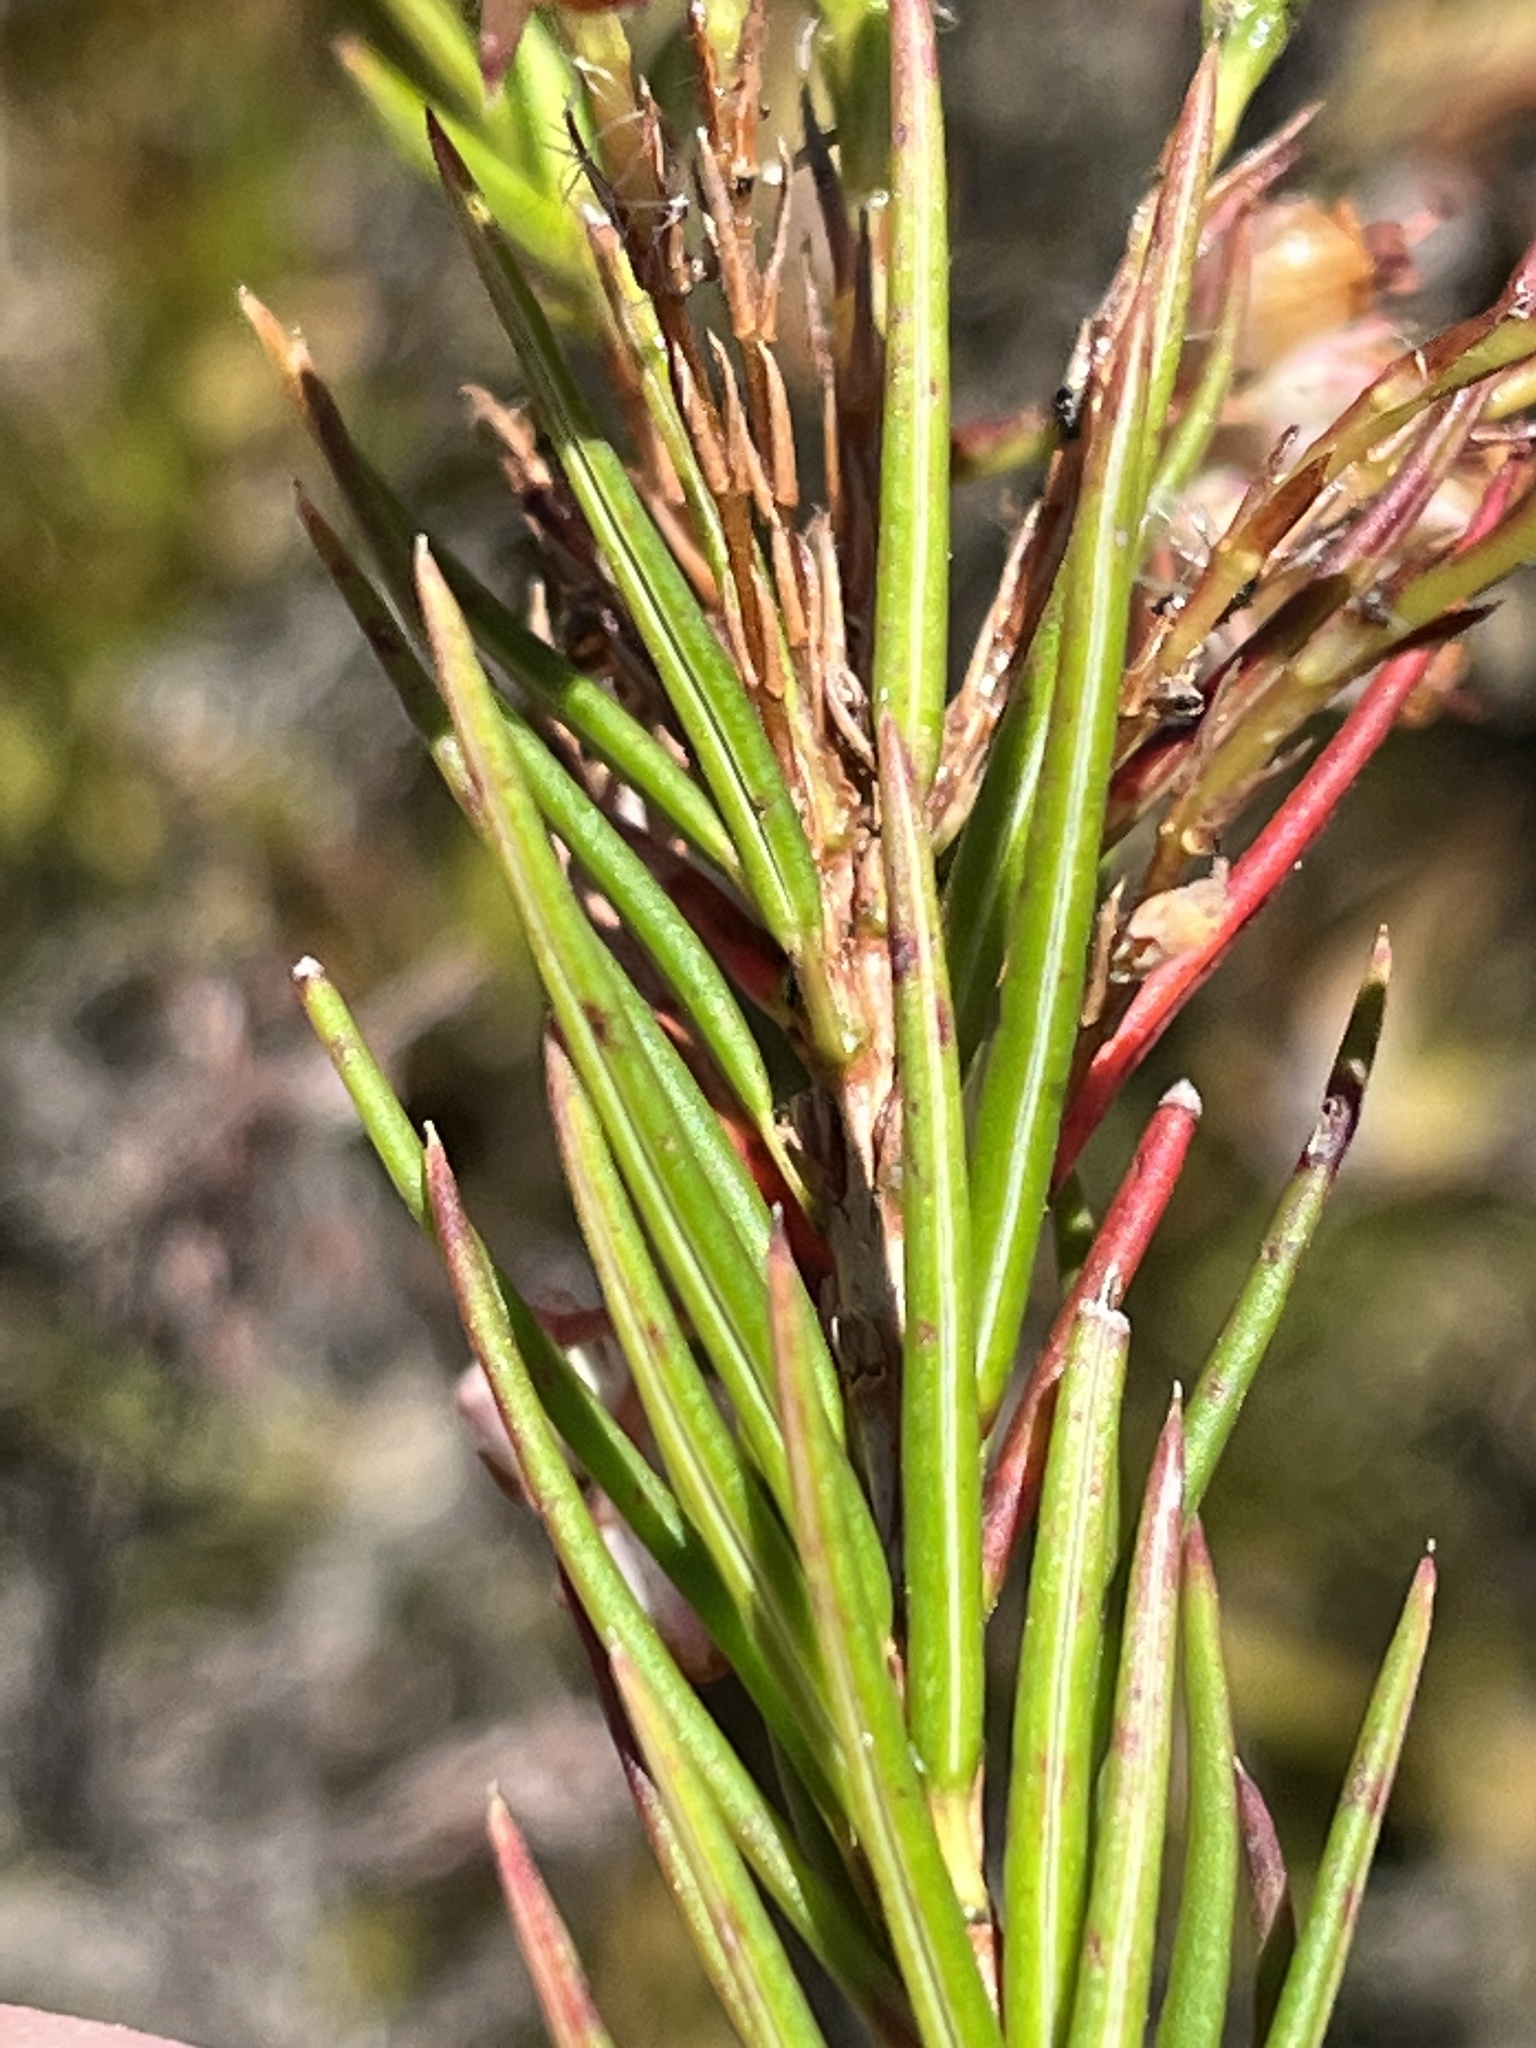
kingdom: Plantae
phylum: Tracheophyta
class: Magnoliopsida
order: Ericales
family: Ericaceae
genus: Erica
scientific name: Erica polifolia
